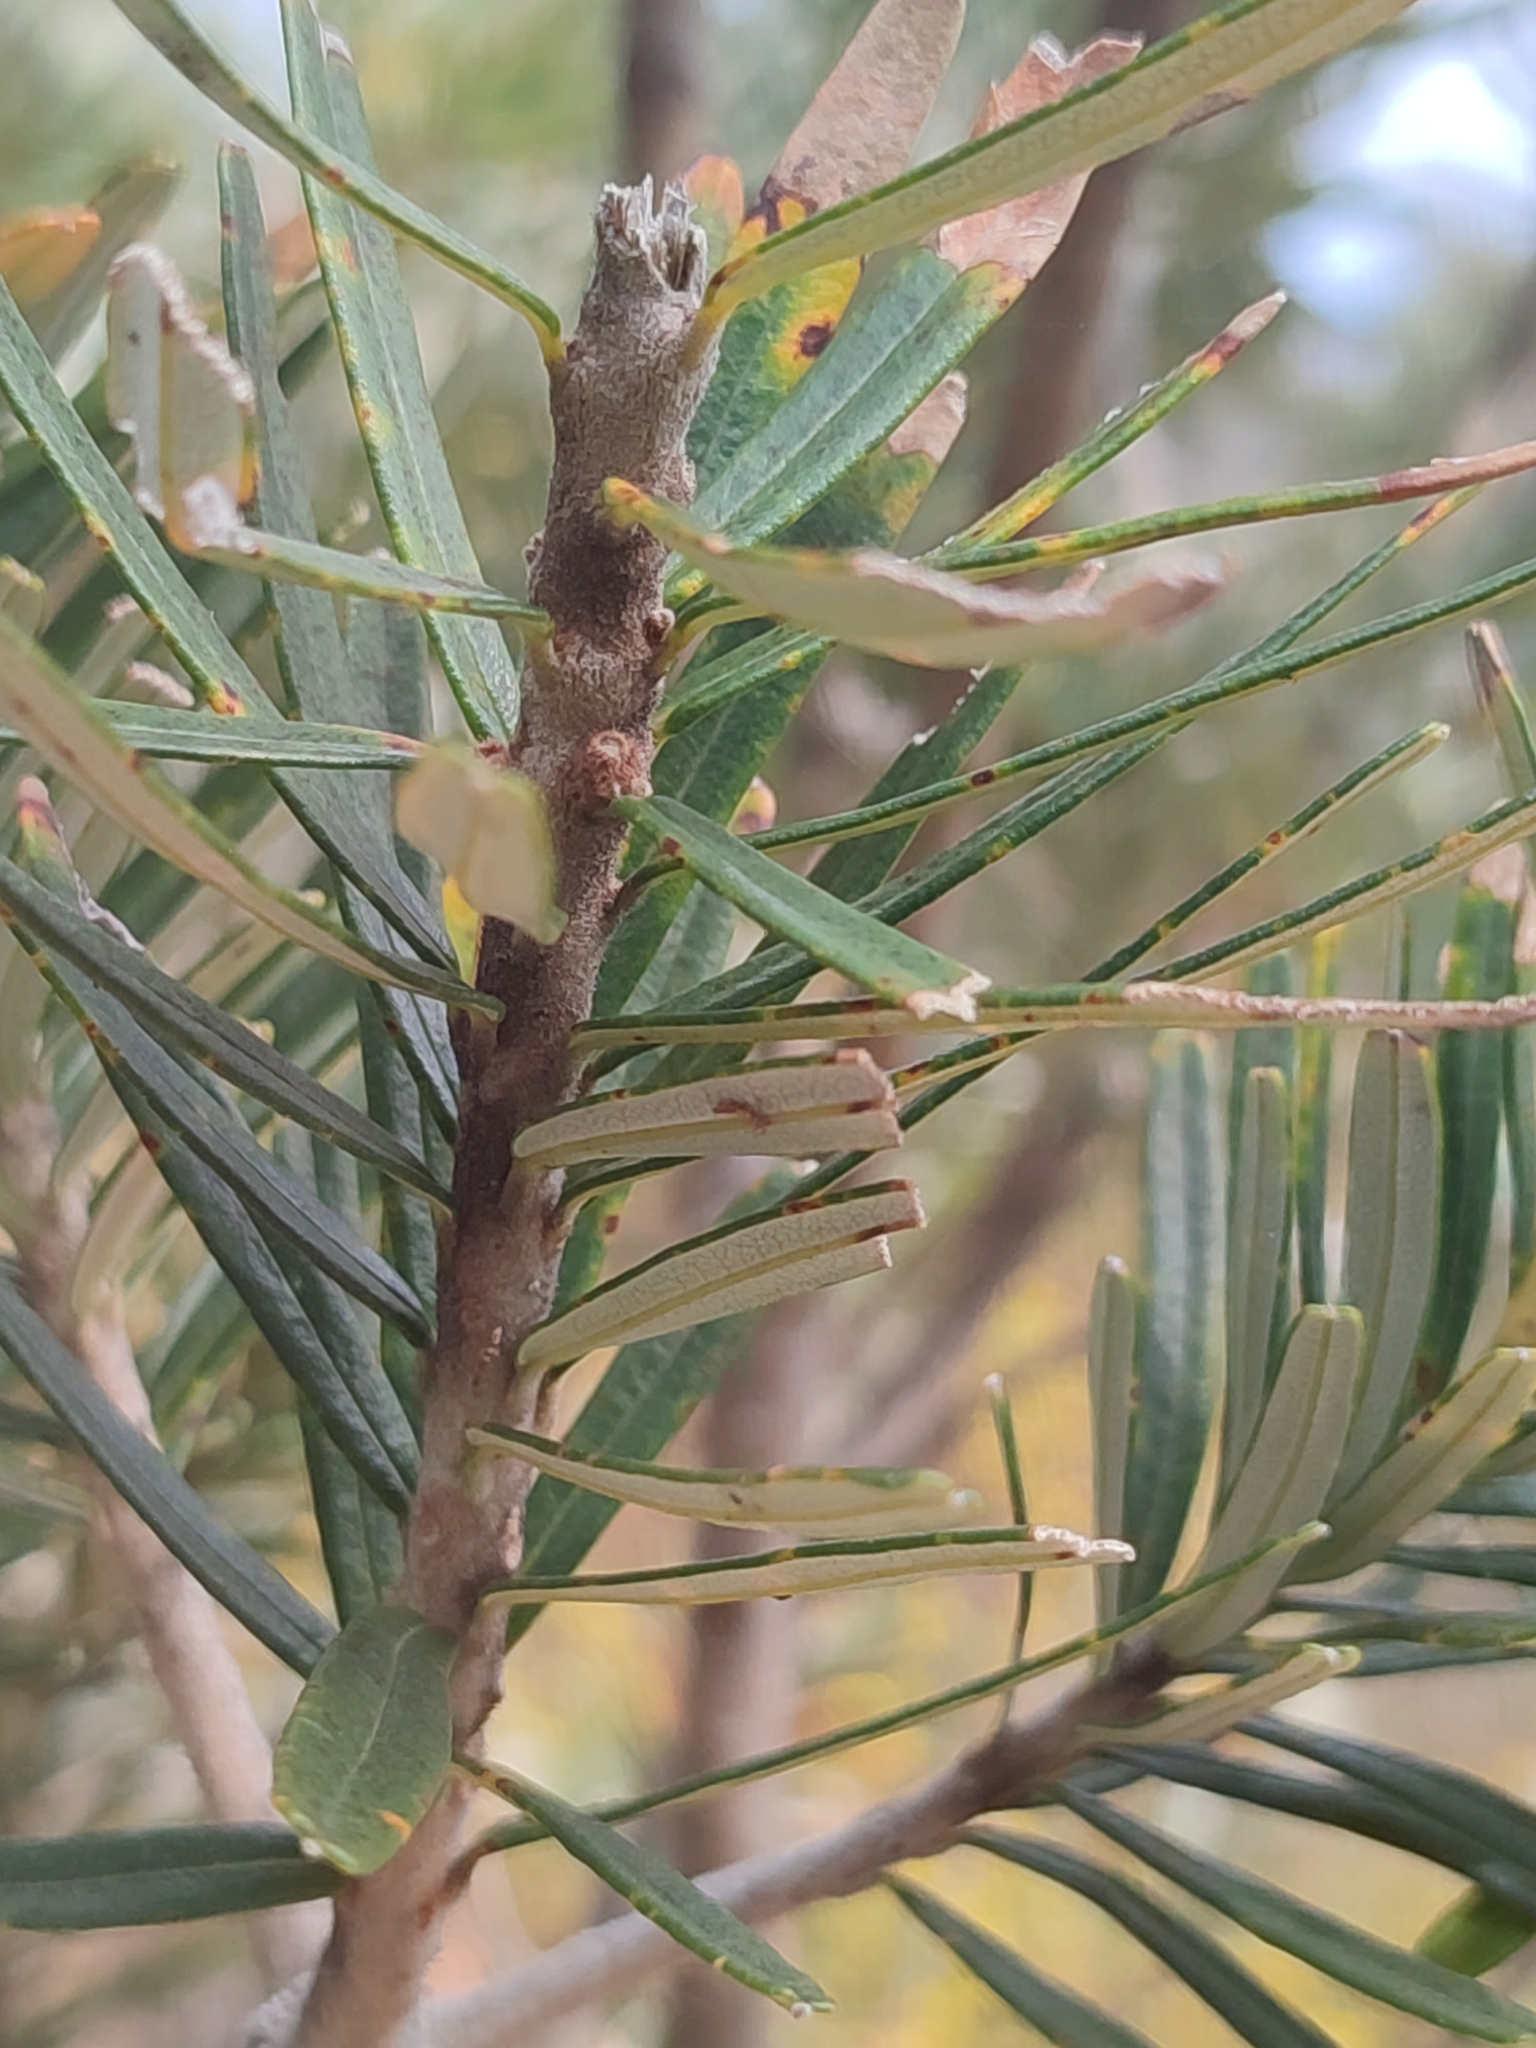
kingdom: Plantae
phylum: Tracheophyta
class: Magnoliopsida
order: Proteales
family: Proteaceae
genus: Banksia
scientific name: Banksia marginata
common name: Silver banksia
